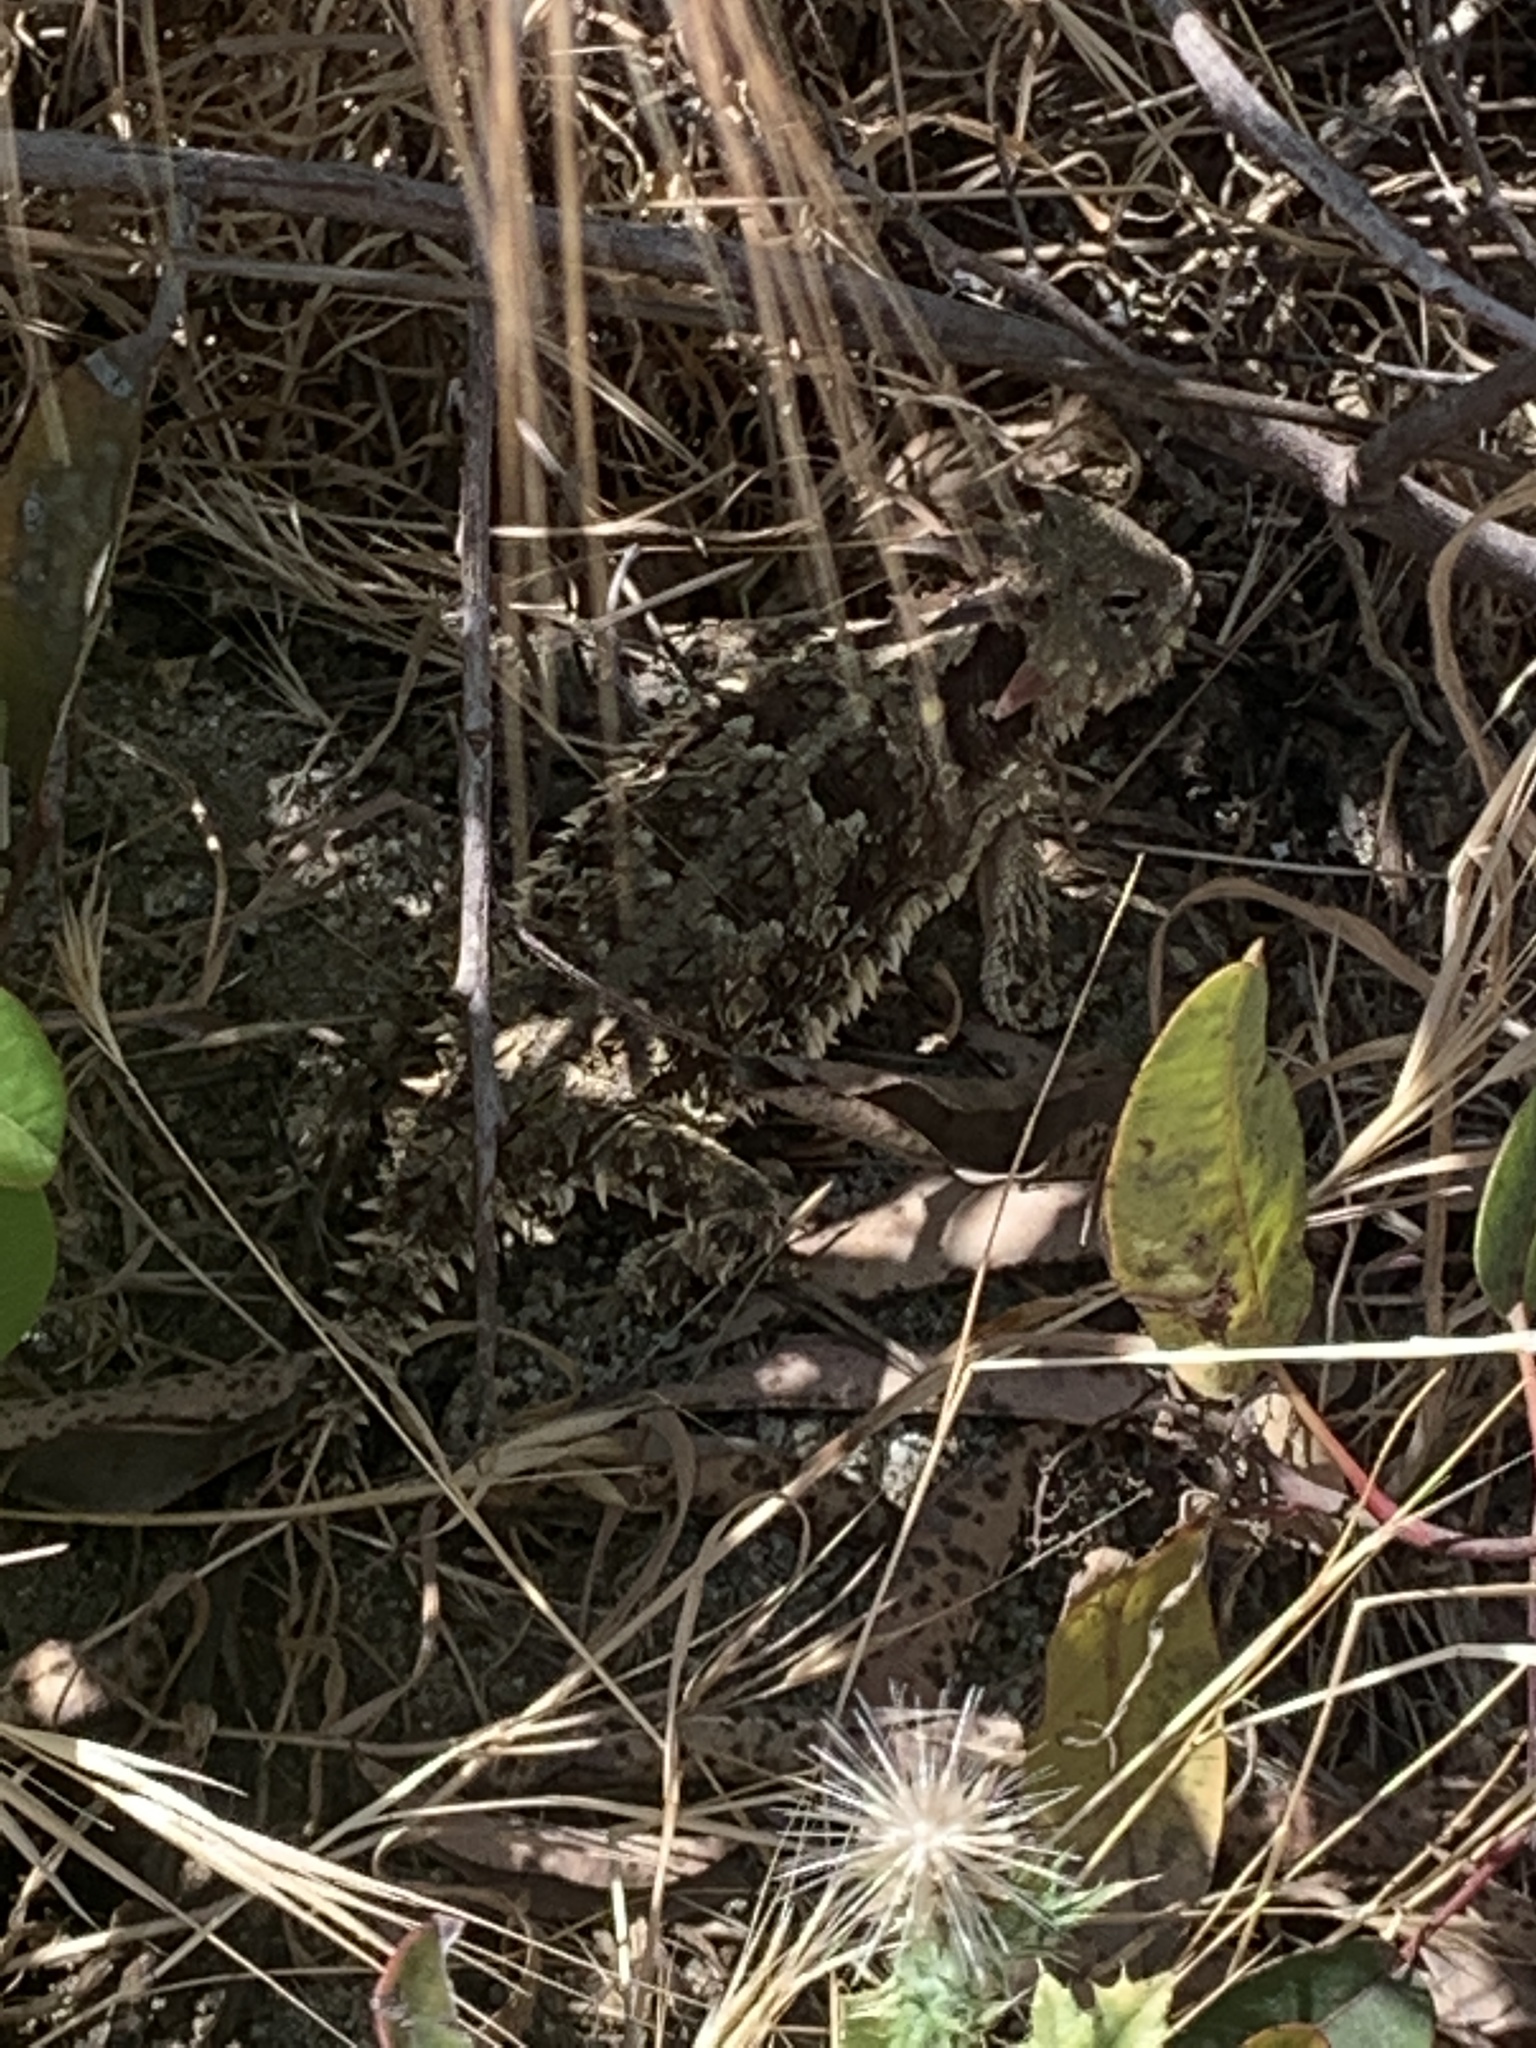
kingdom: Animalia
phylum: Chordata
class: Squamata
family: Phrynosomatidae
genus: Phrynosoma
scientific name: Phrynosoma blainvillii
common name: San diego horned lizard
